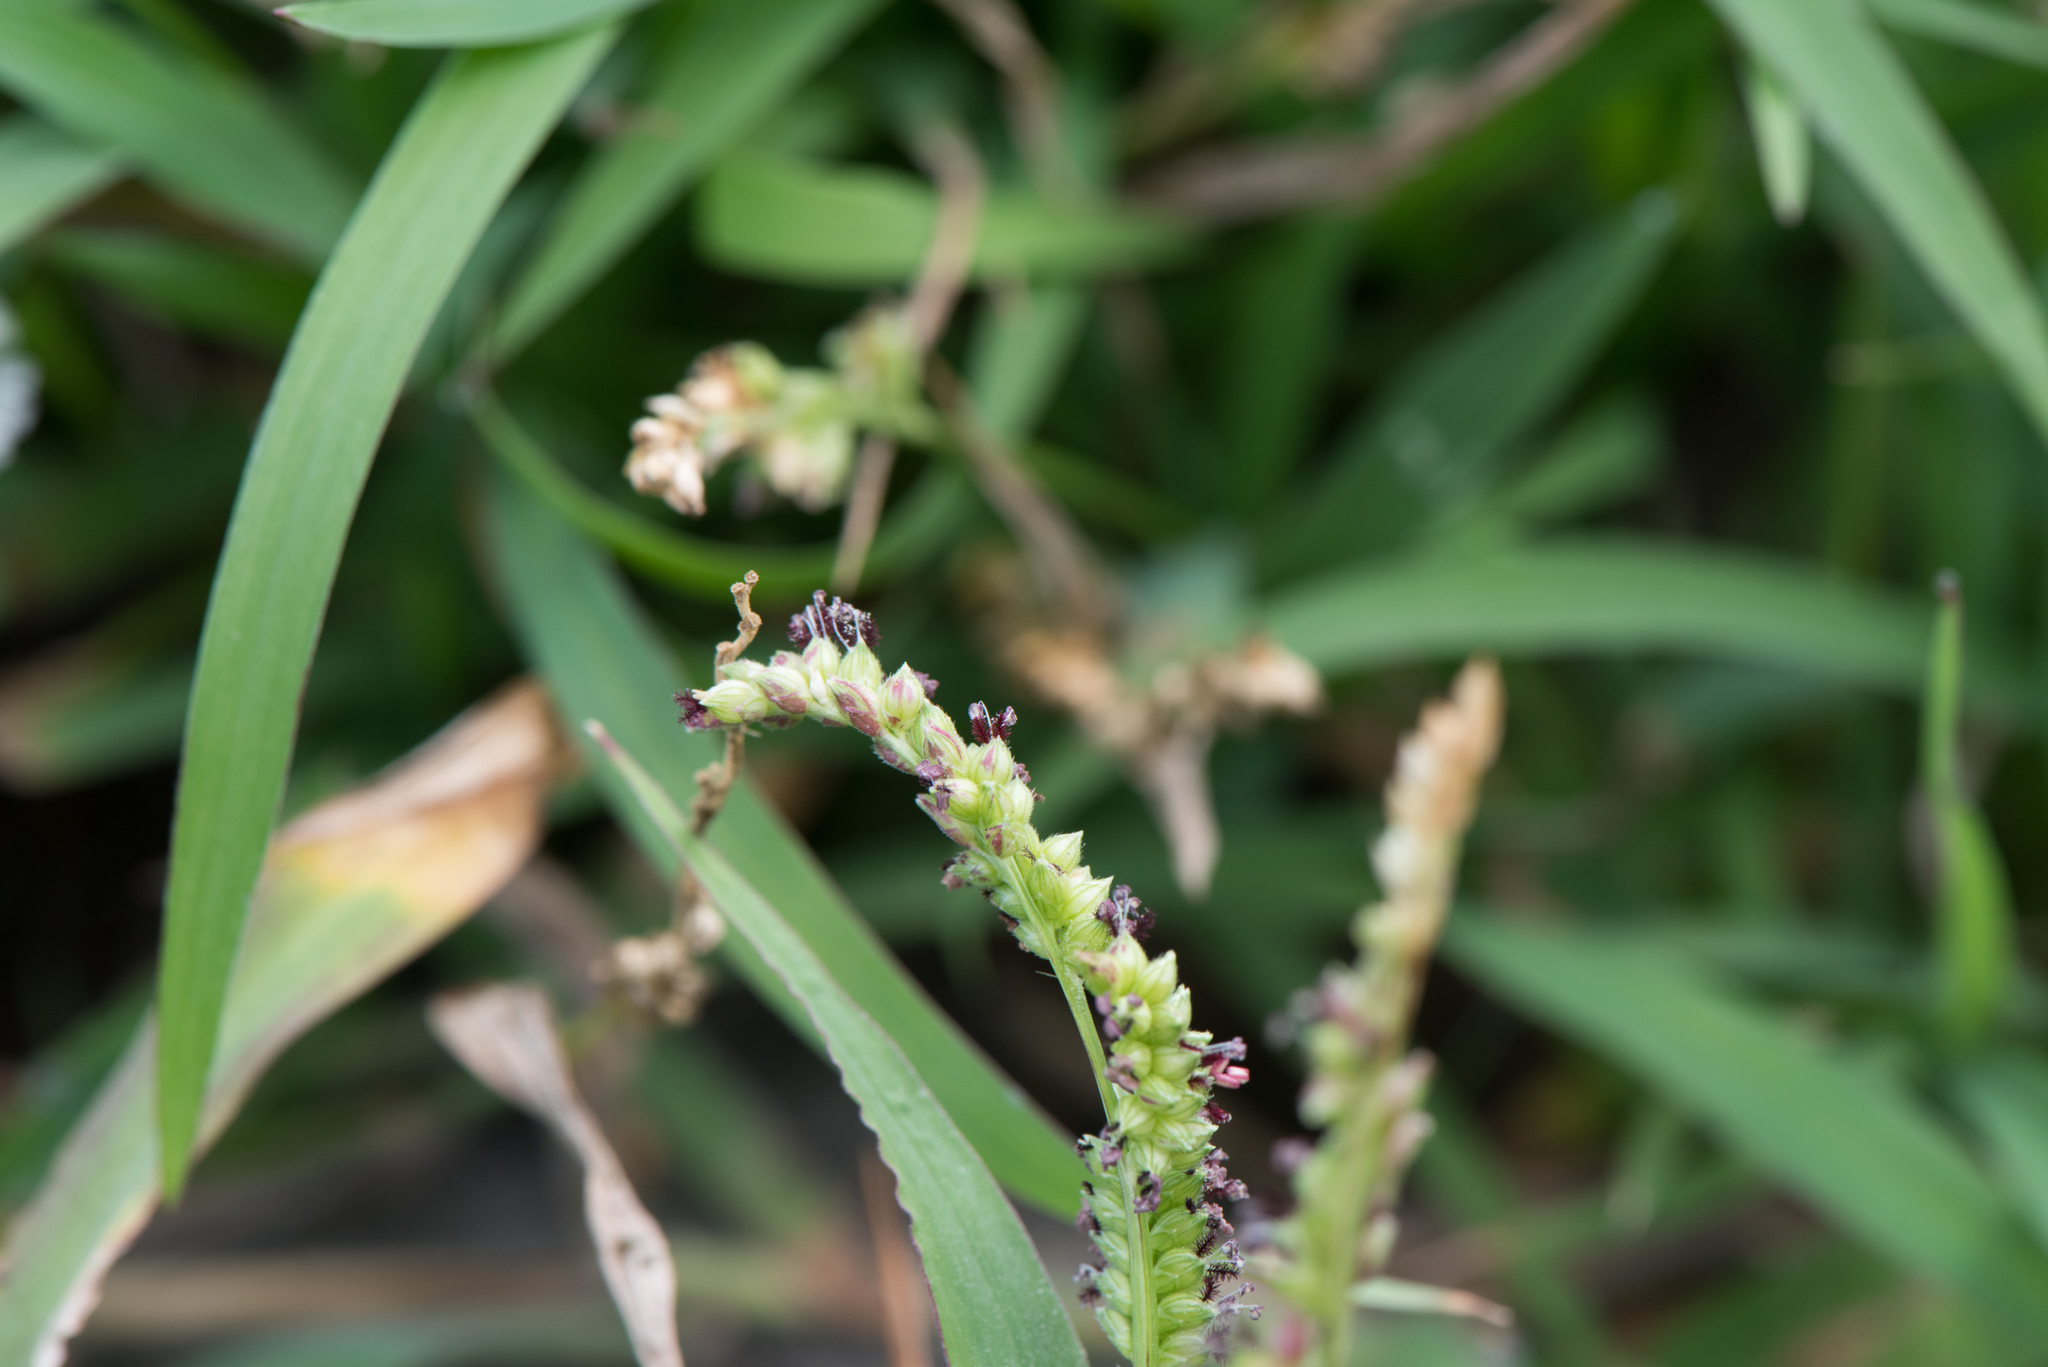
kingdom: Plantae
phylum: Tracheophyta
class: Liliopsida
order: Poales
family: Poaceae
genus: Echinochloa
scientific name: Echinochloa colonum
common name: Jungle rice
